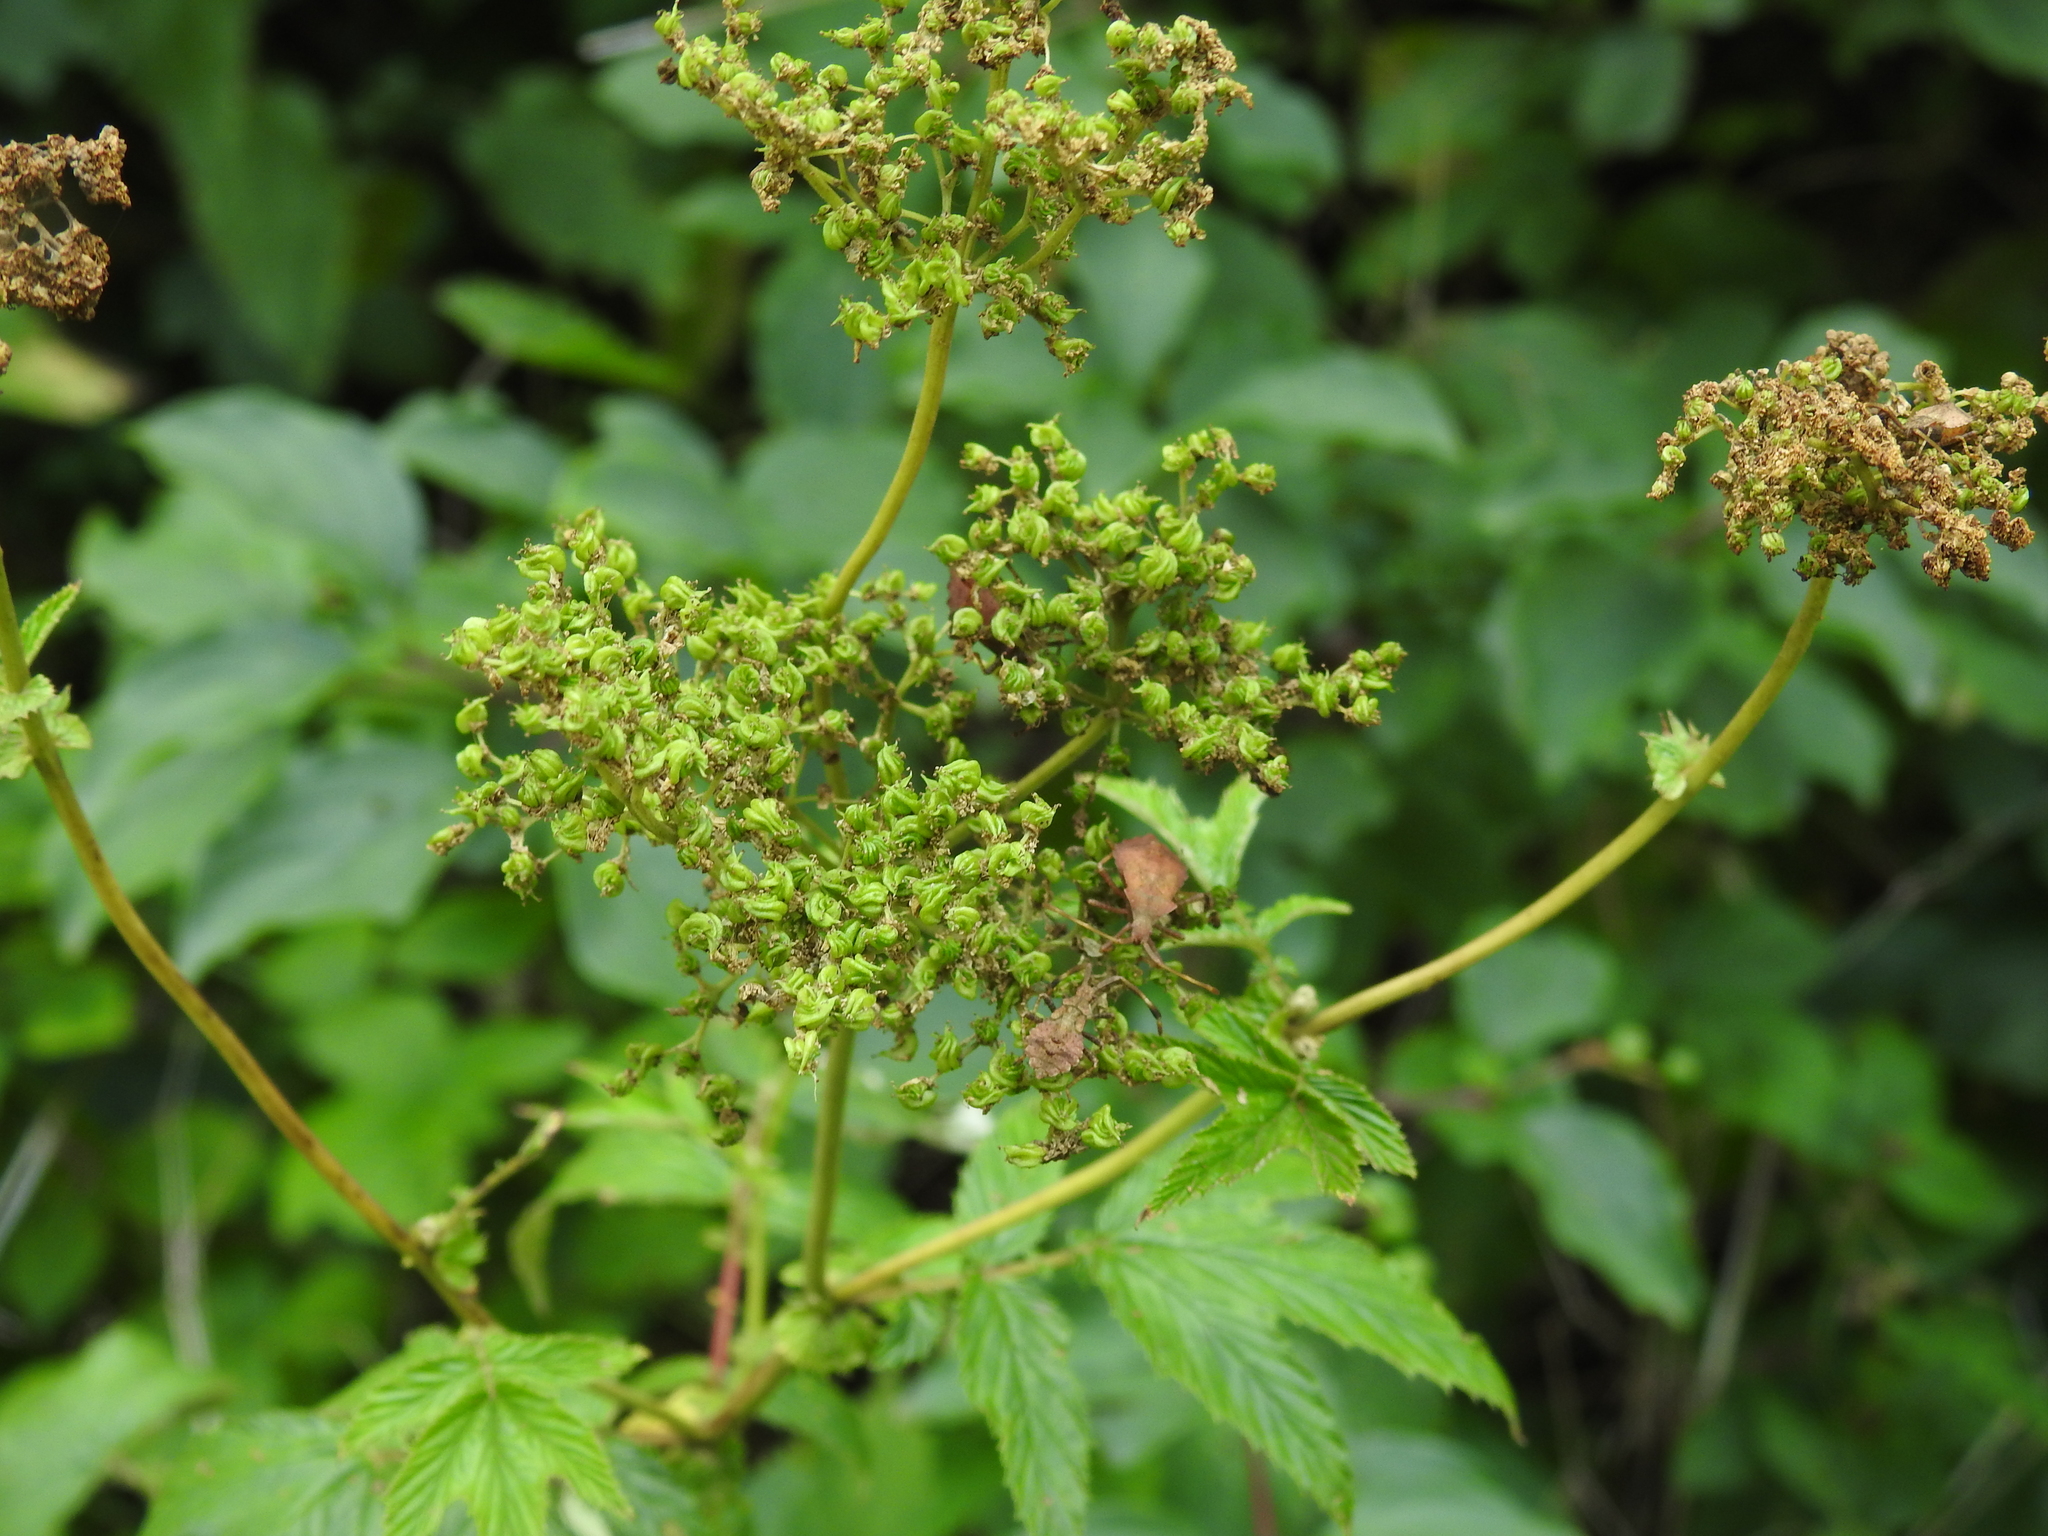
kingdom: Plantae
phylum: Tracheophyta
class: Magnoliopsida
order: Rosales
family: Rosaceae
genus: Filipendula
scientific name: Filipendula ulmaria
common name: Meadowsweet
